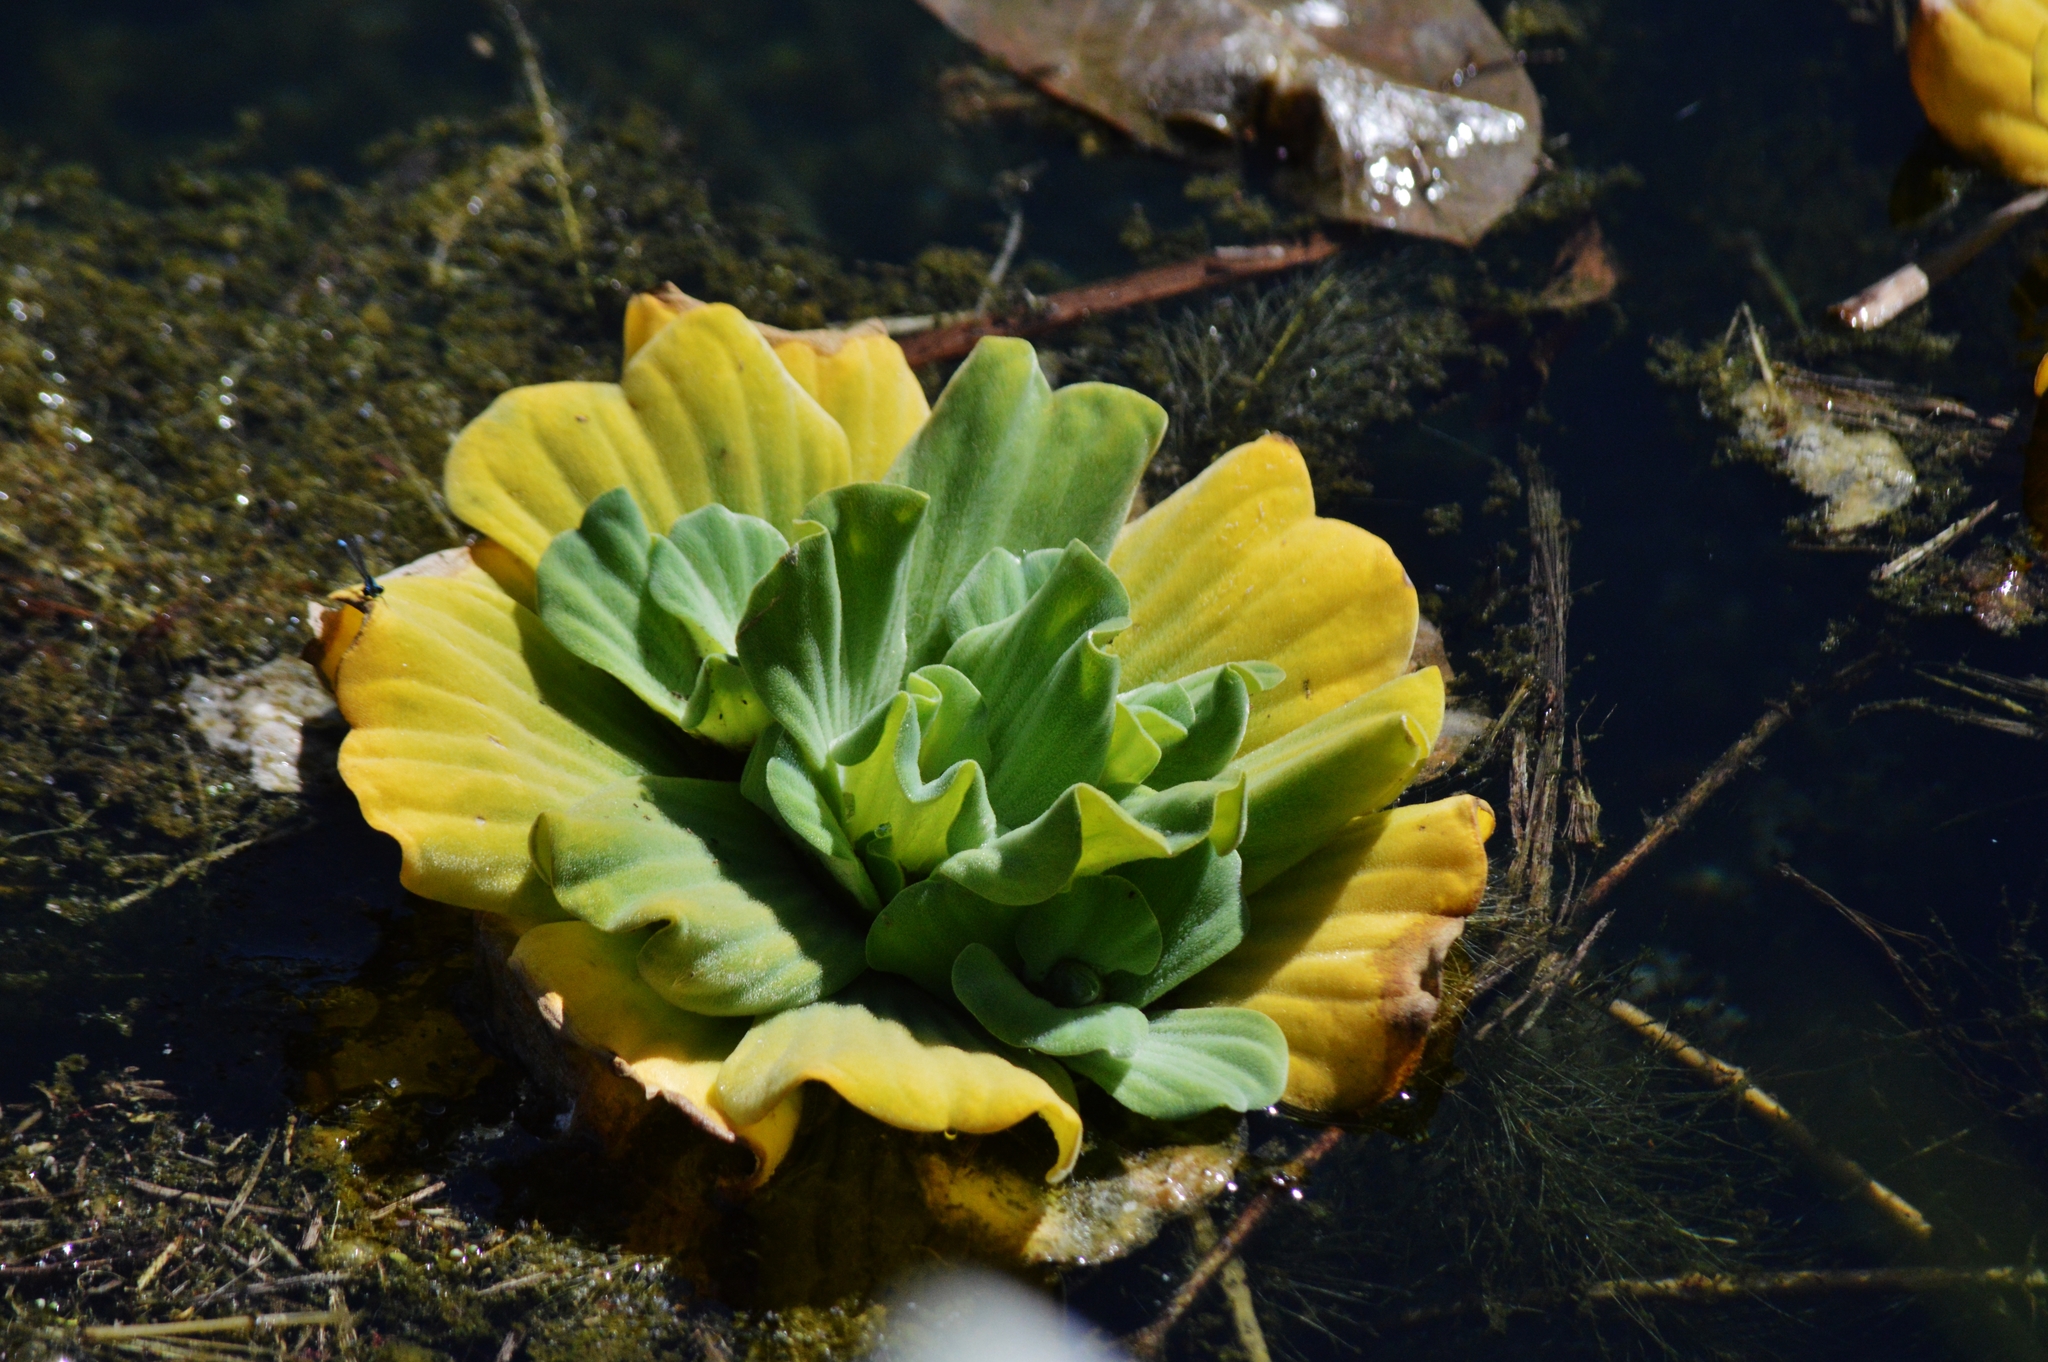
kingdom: Plantae
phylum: Tracheophyta
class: Liliopsida
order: Alismatales
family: Araceae
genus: Pistia
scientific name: Pistia stratiotes
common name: Water lettuce
